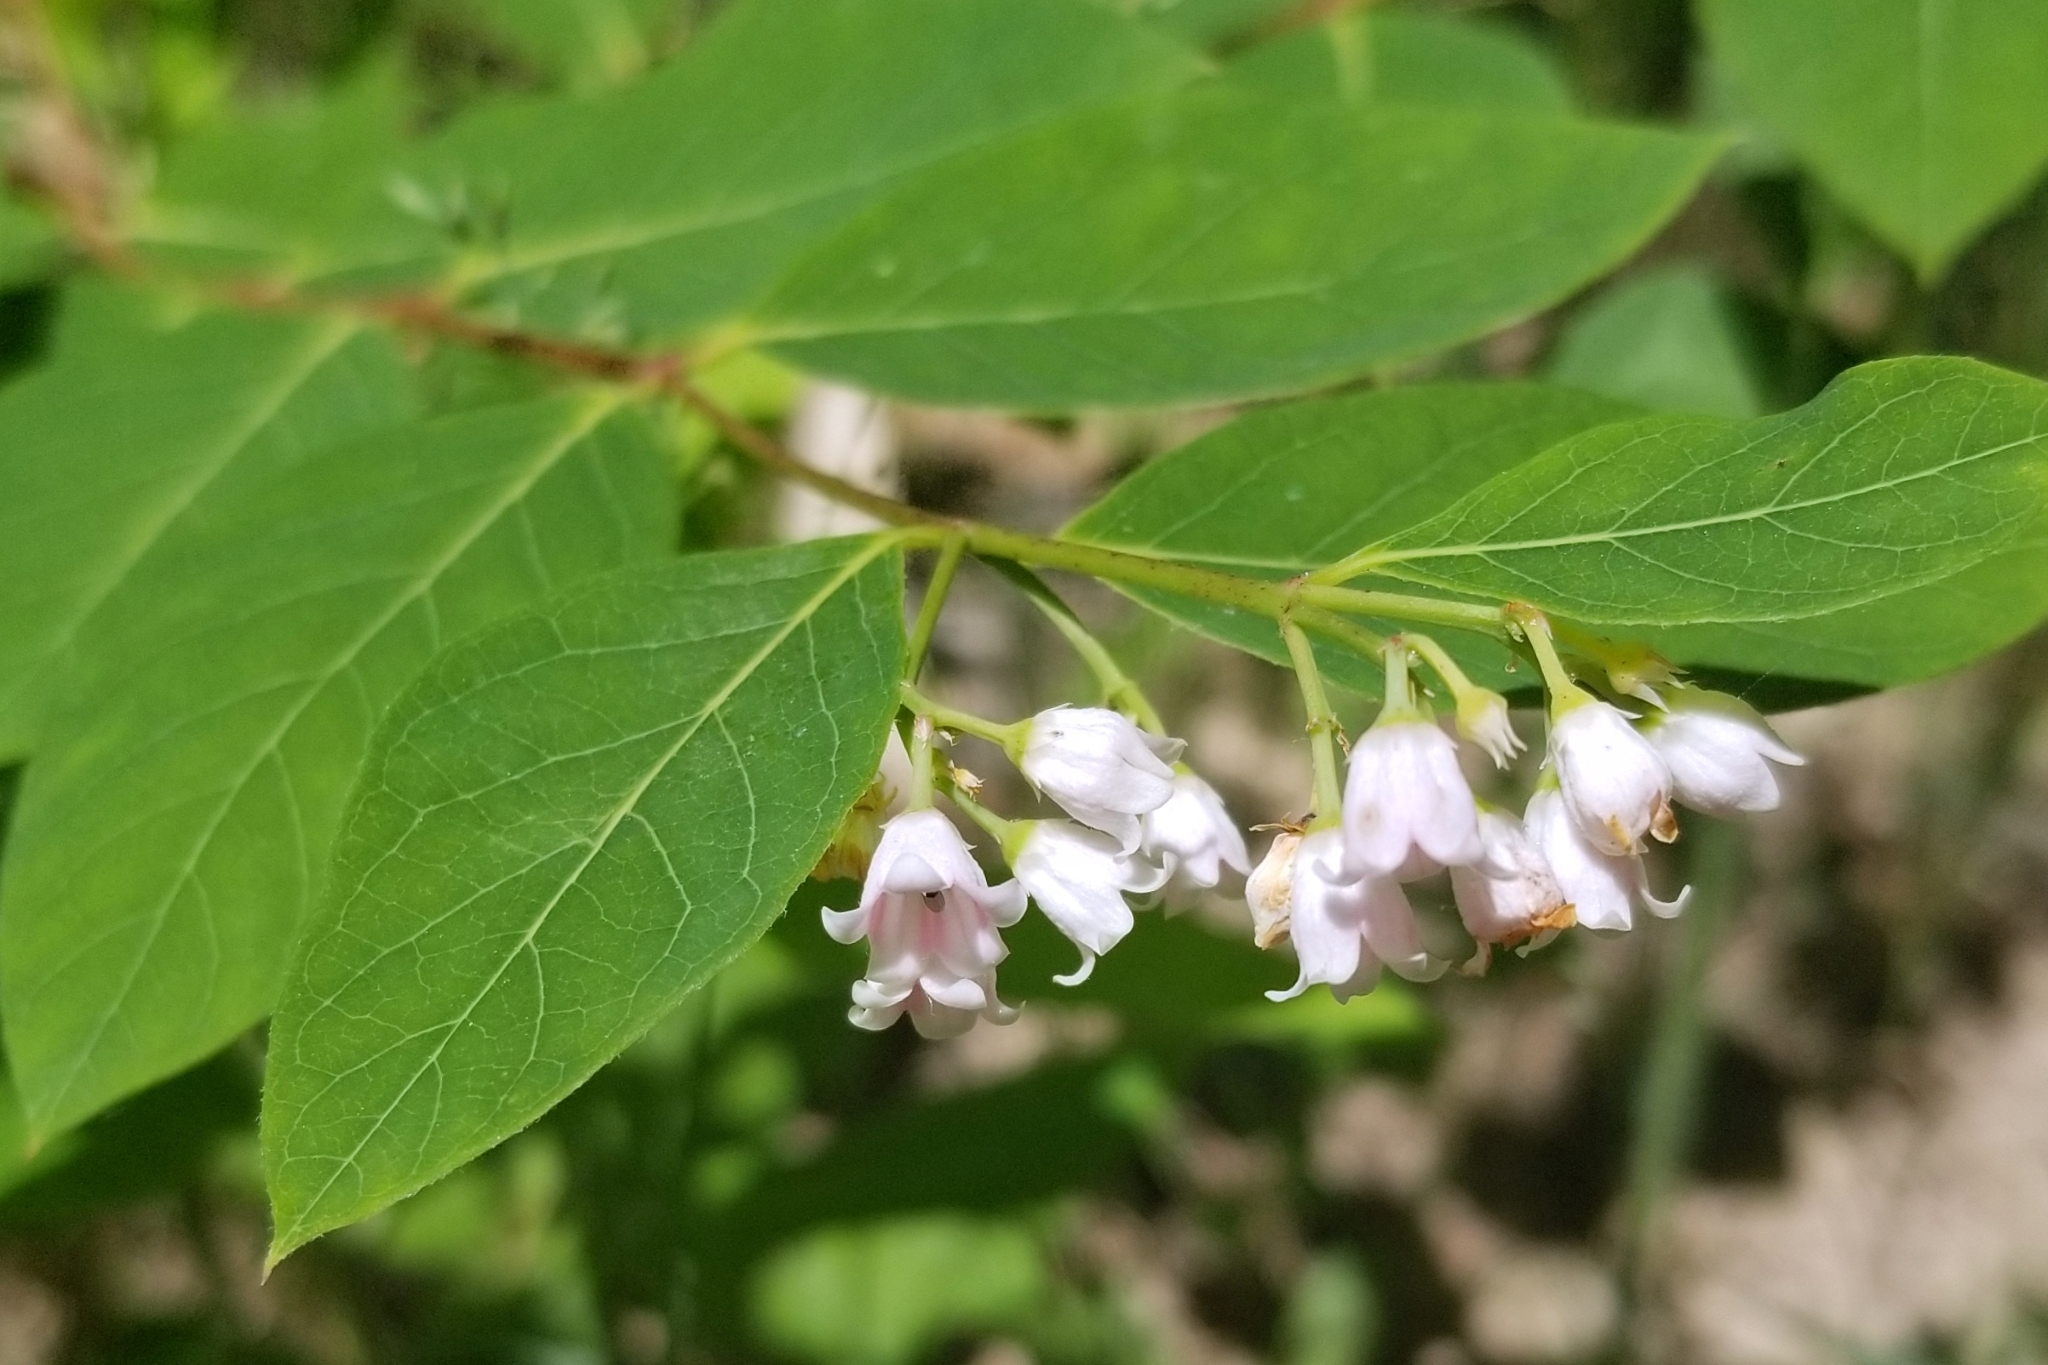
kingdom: Plantae
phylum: Tracheophyta
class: Magnoliopsida
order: Gentianales
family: Apocynaceae
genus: Apocynum
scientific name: Apocynum androsaemifolium
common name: Spreading dogbane
